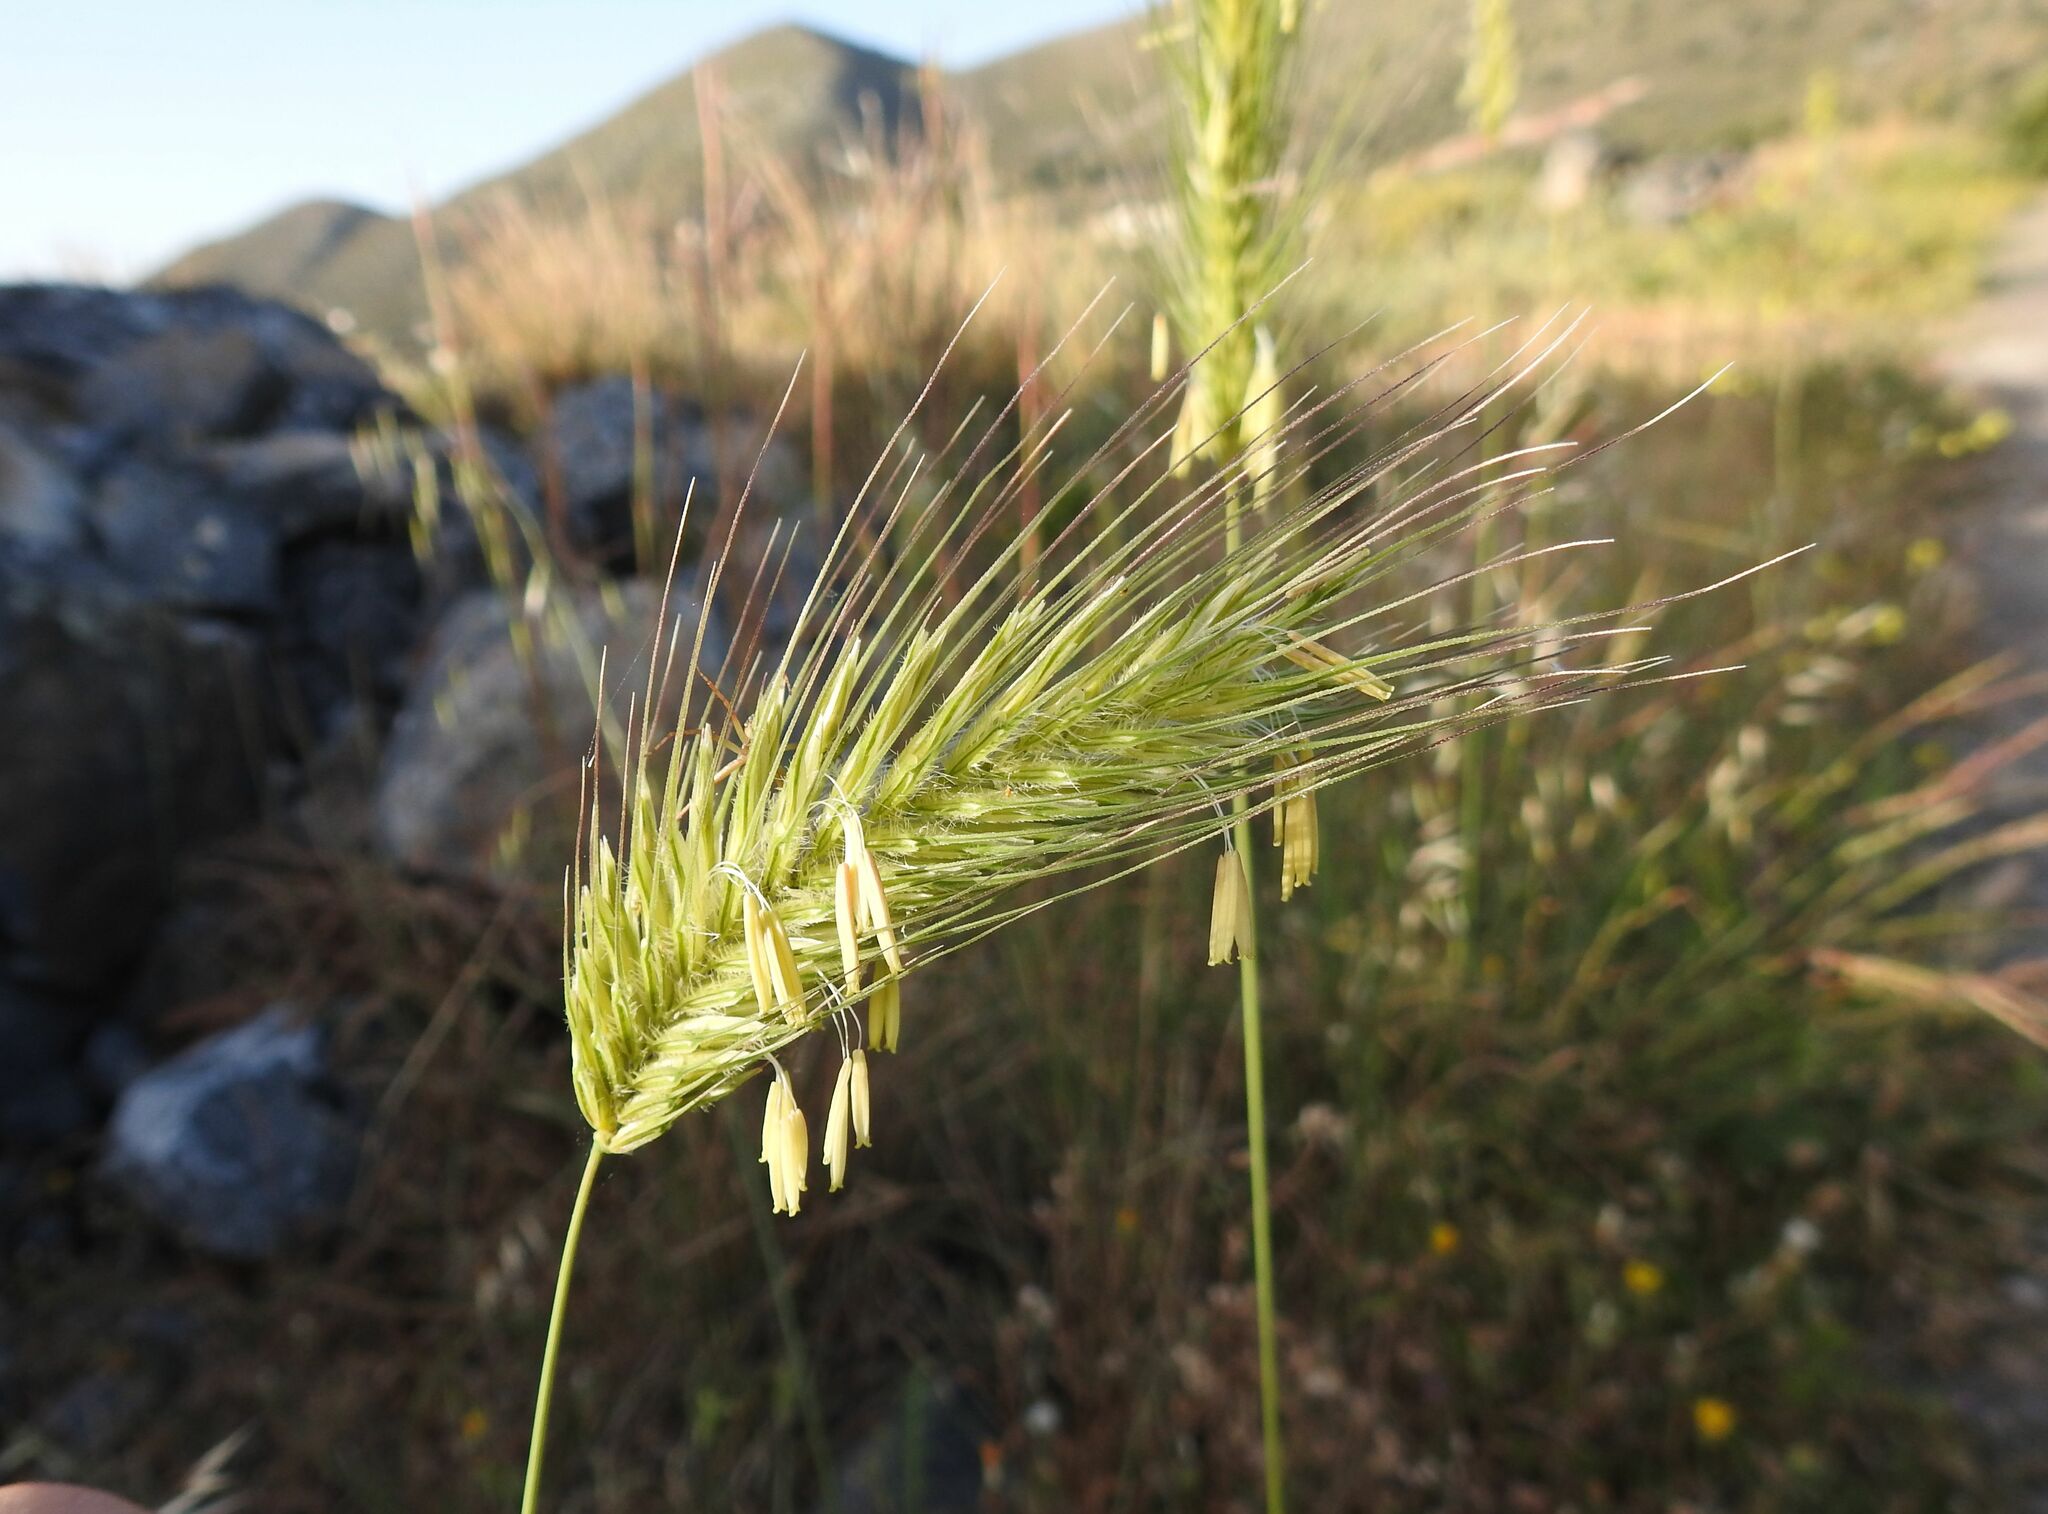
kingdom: Plantae
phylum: Tracheophyta
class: Liliopsida
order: Poales
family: Poaceae
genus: Dasypyrum
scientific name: Dasypyrum villosum
